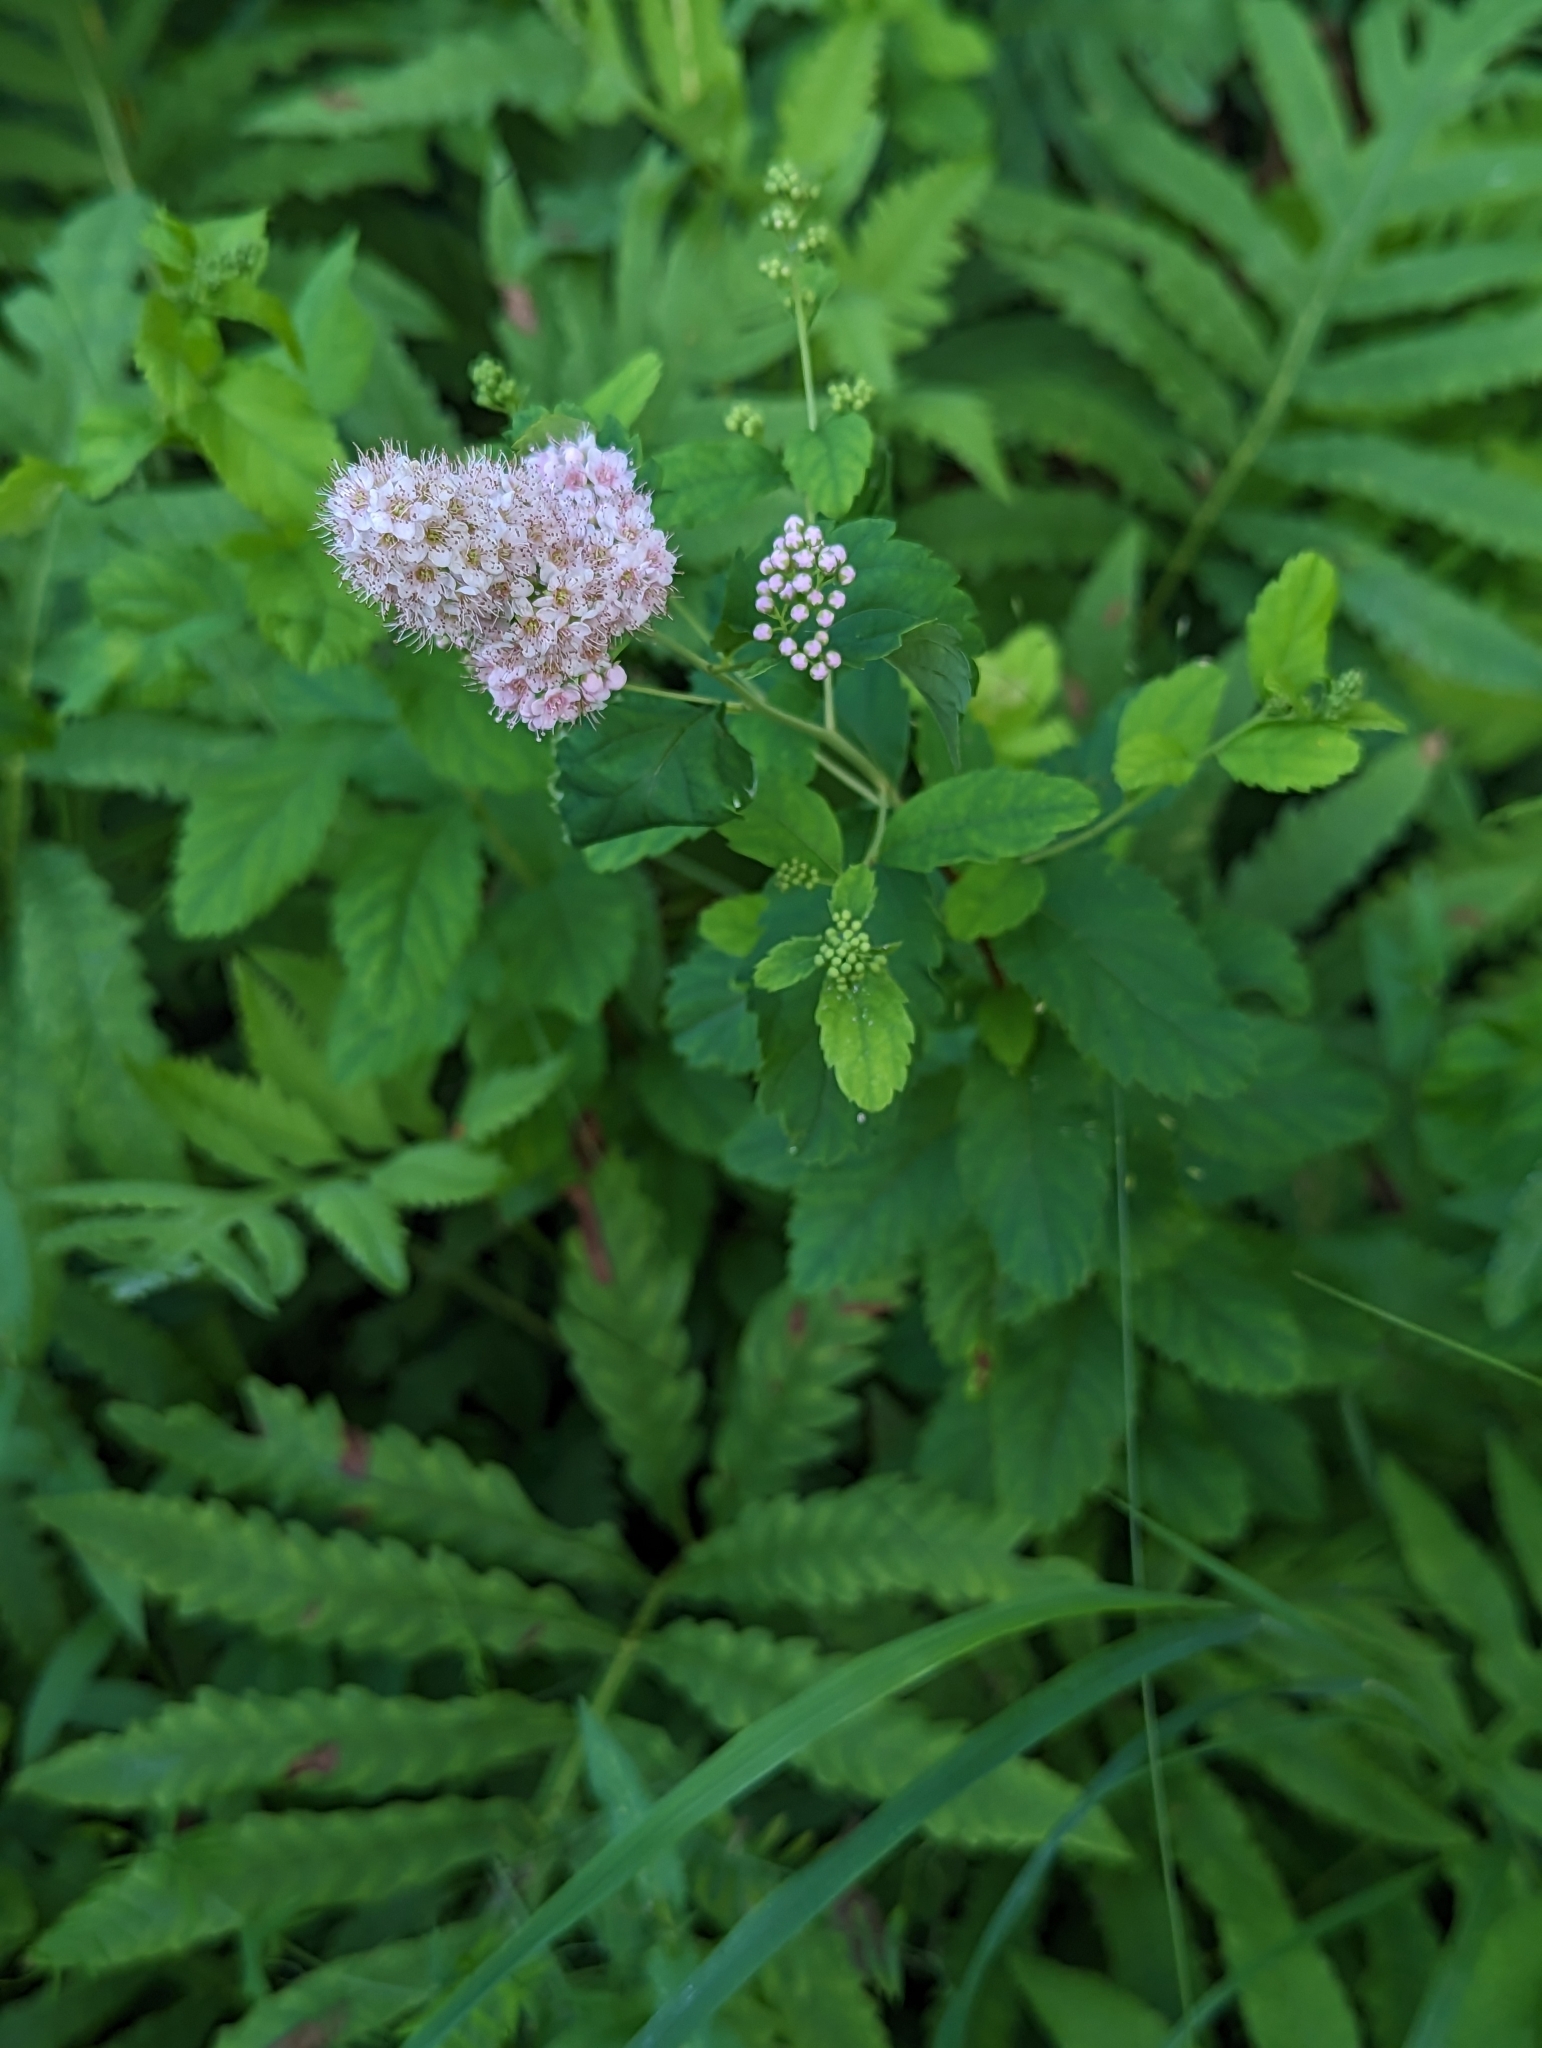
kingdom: Plantae
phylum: Tracheophyta
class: Magnoliopsida
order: Rosales
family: Rosaceae
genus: Spiraea
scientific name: Spiraea alba
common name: Pale bridewort
